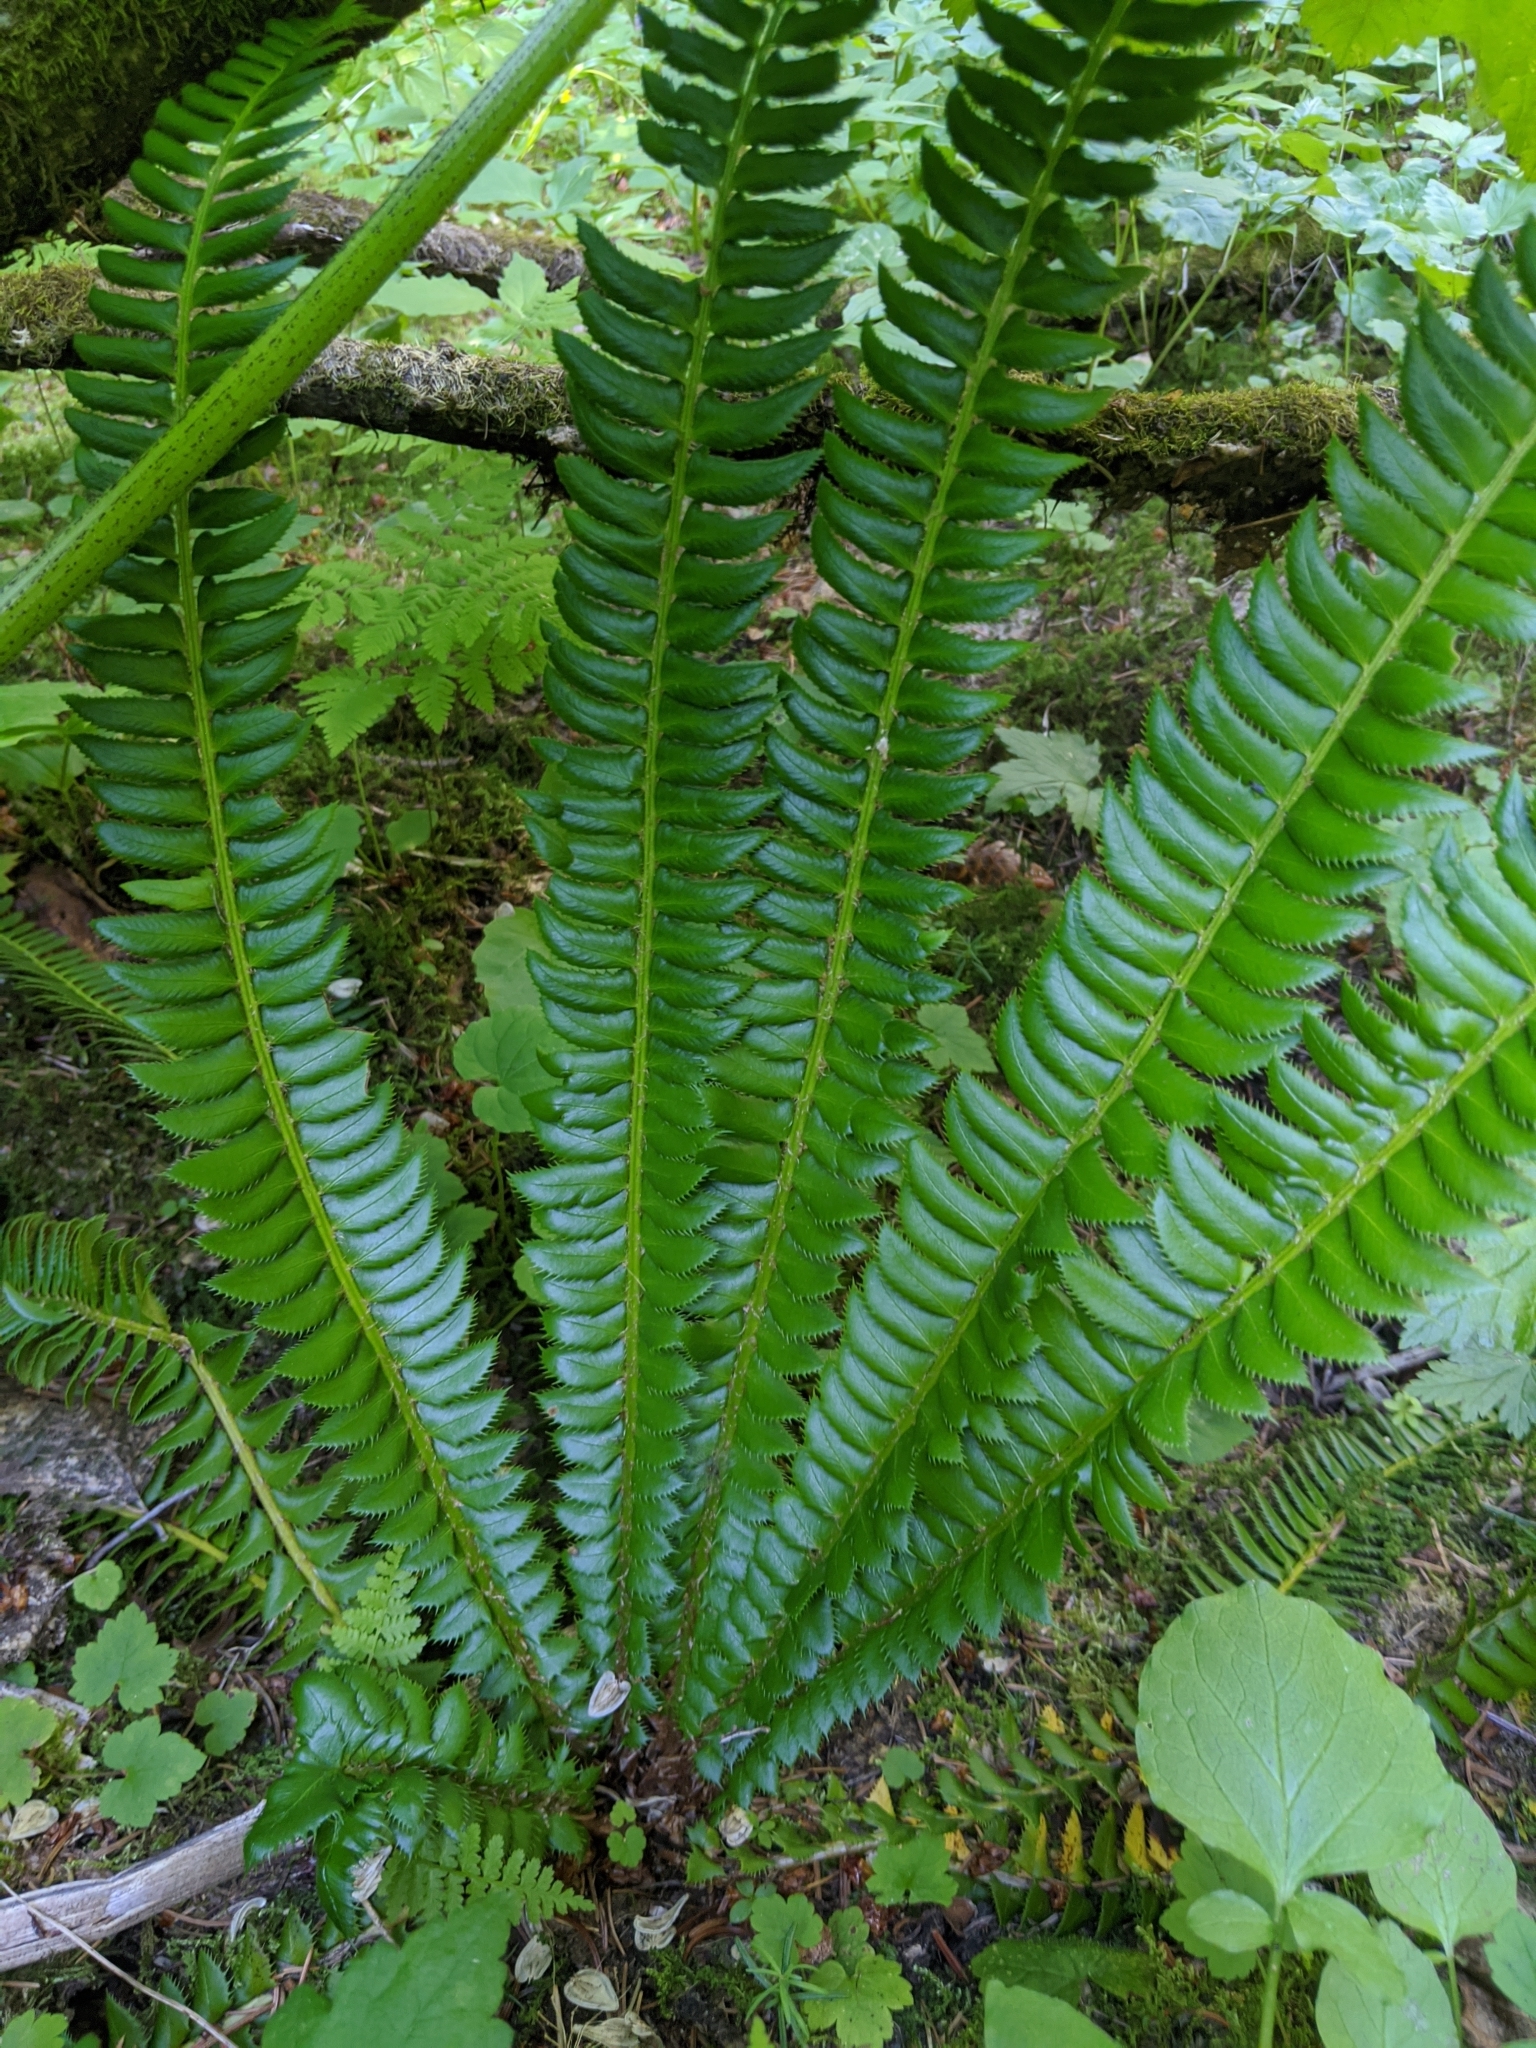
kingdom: Plantae
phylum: Tracheophyta
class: Polypodiopsida
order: Polypodiales
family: Dryopteridaceae
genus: Polystichum
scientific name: Polystichum lonchitis
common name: Holly fern
